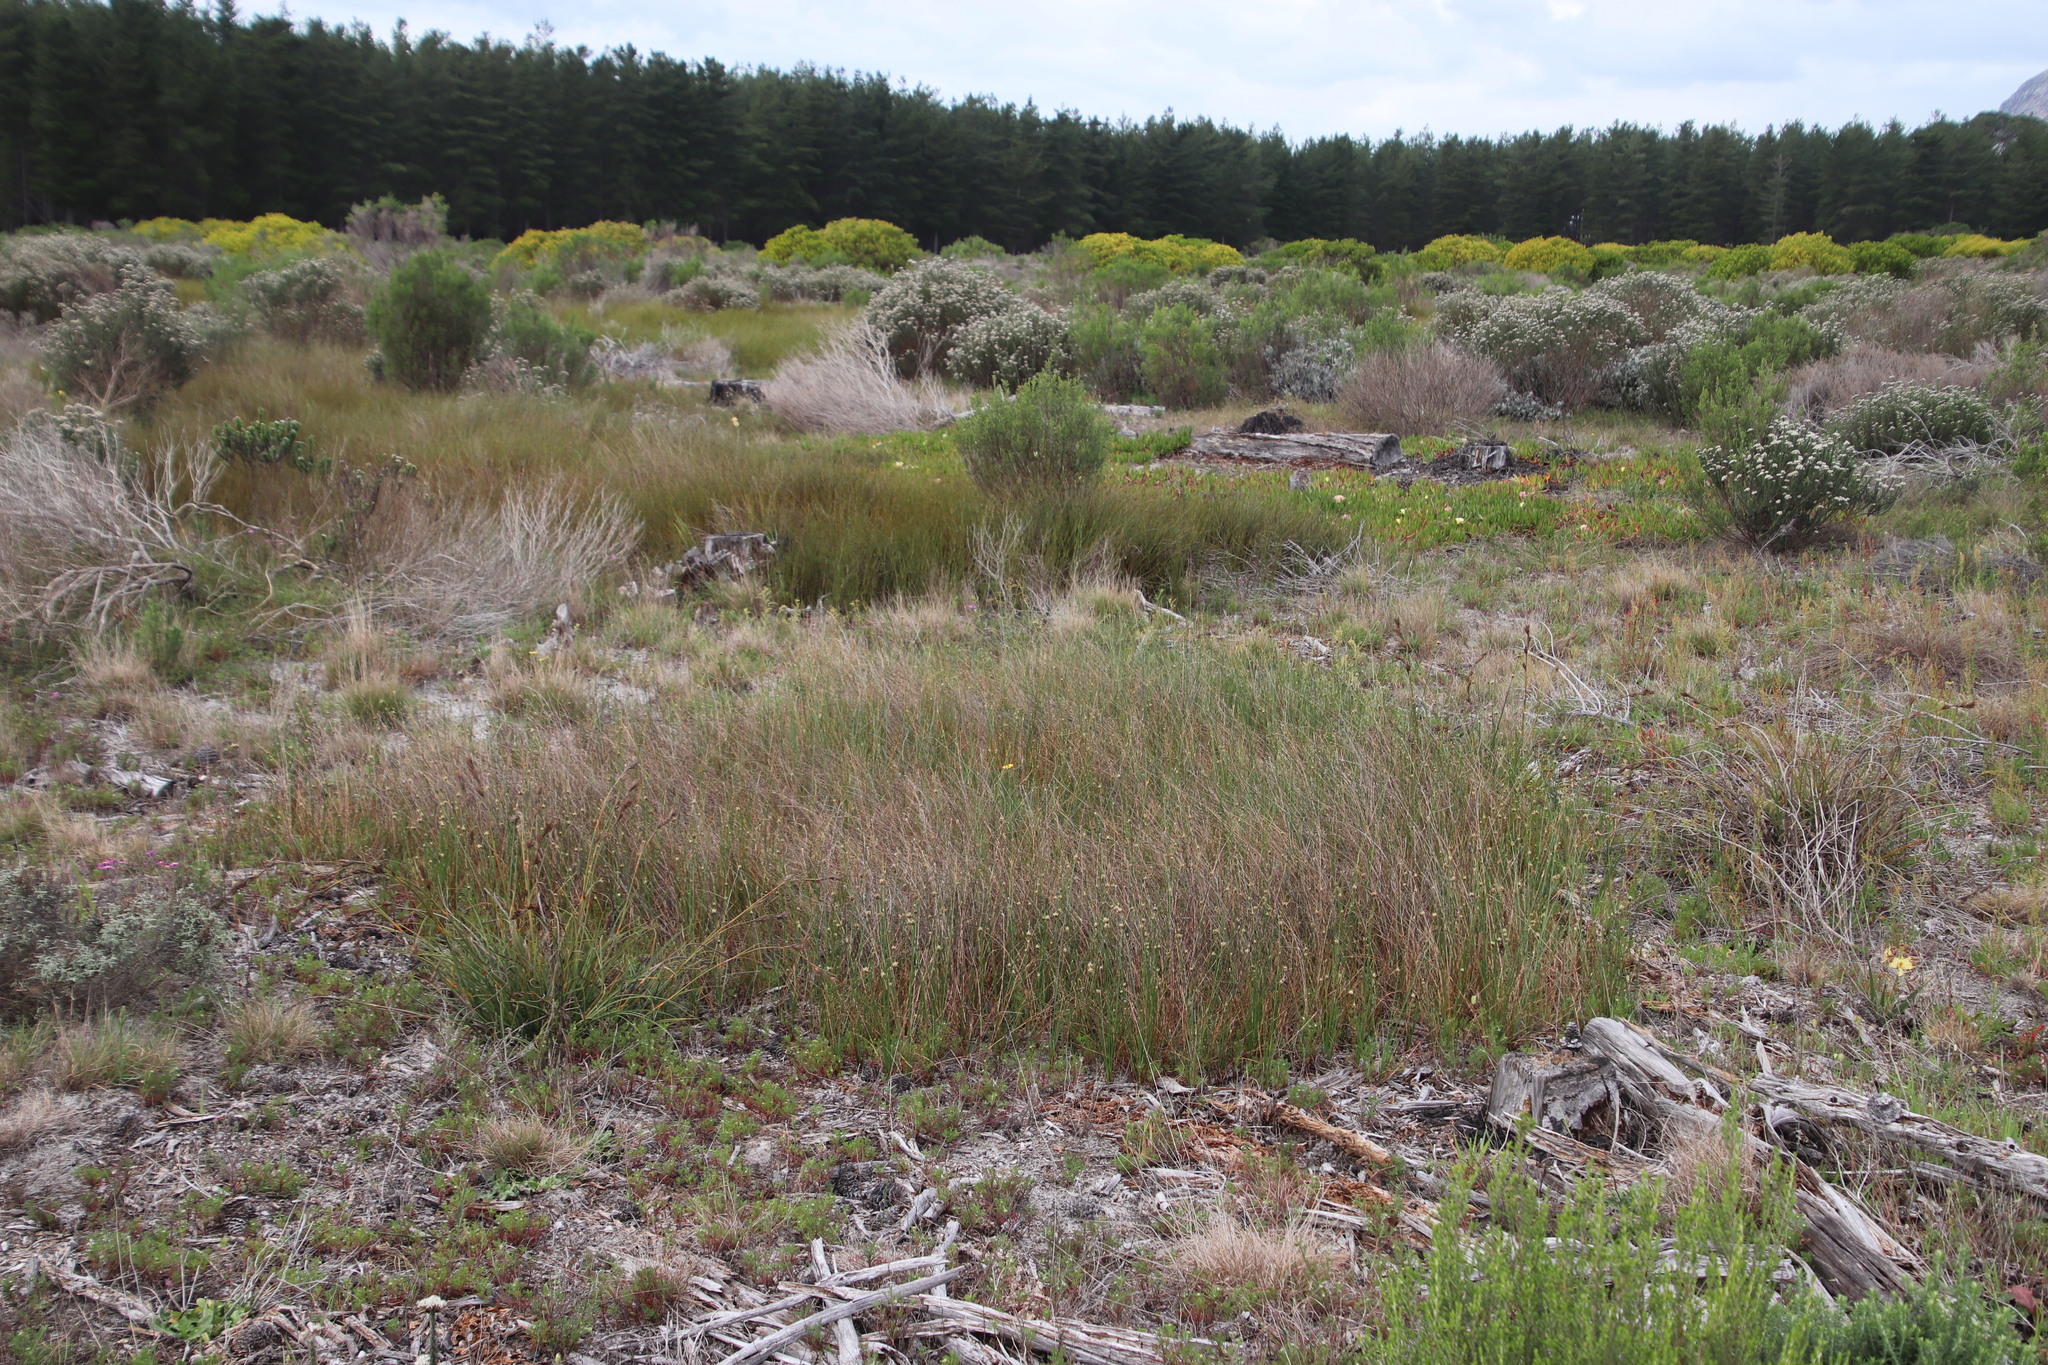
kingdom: Plantae
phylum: Tracheophyta
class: Liliopsida
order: Poales
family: Cyperaceae
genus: Ficinia
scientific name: Ficinia indica
